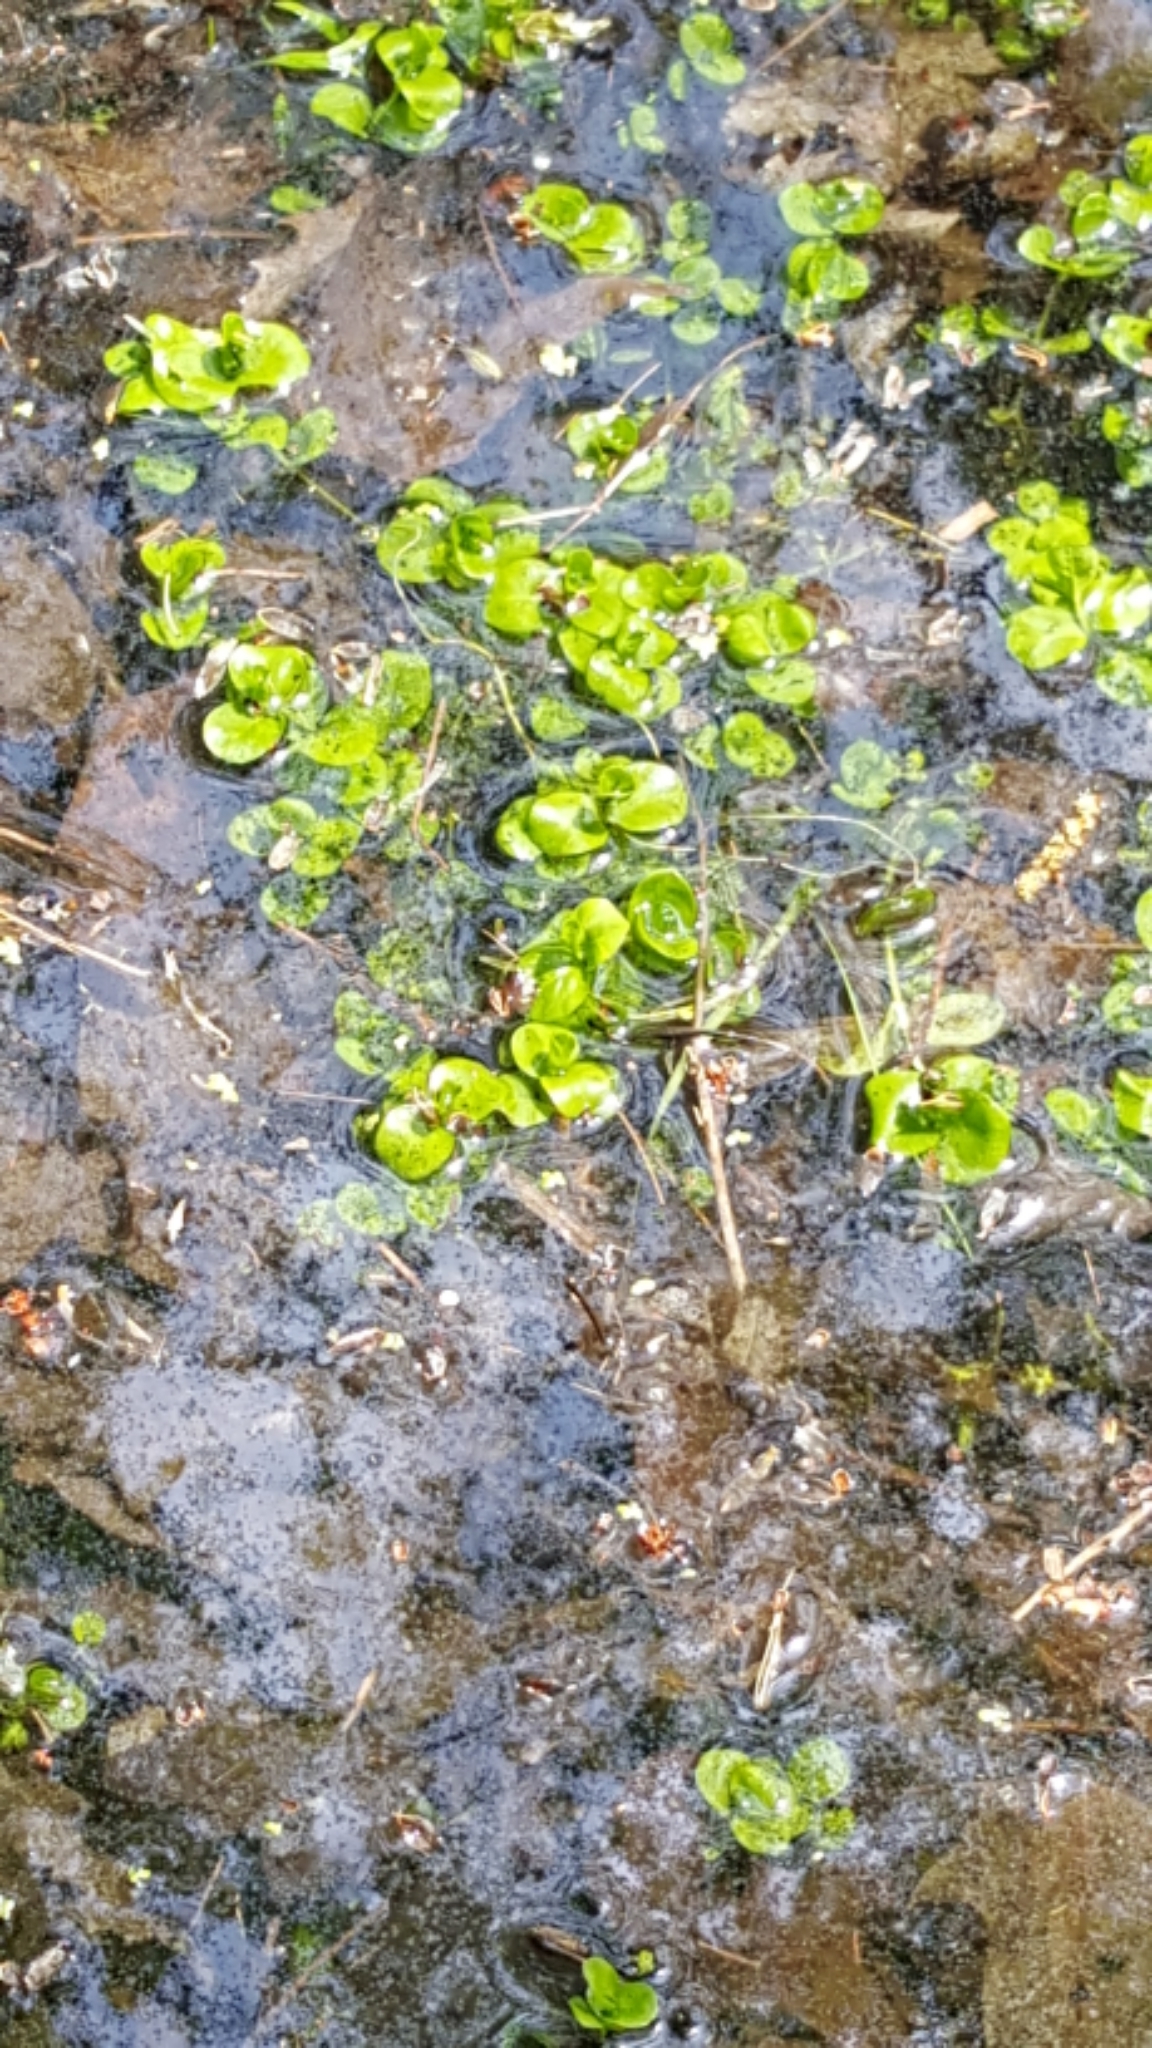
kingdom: Plantae
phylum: Tracheophyta
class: Magnoliopsida
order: Ericales
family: Primulaceae
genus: Lysimachia
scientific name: Lysimachia nummularia
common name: Moneywort
